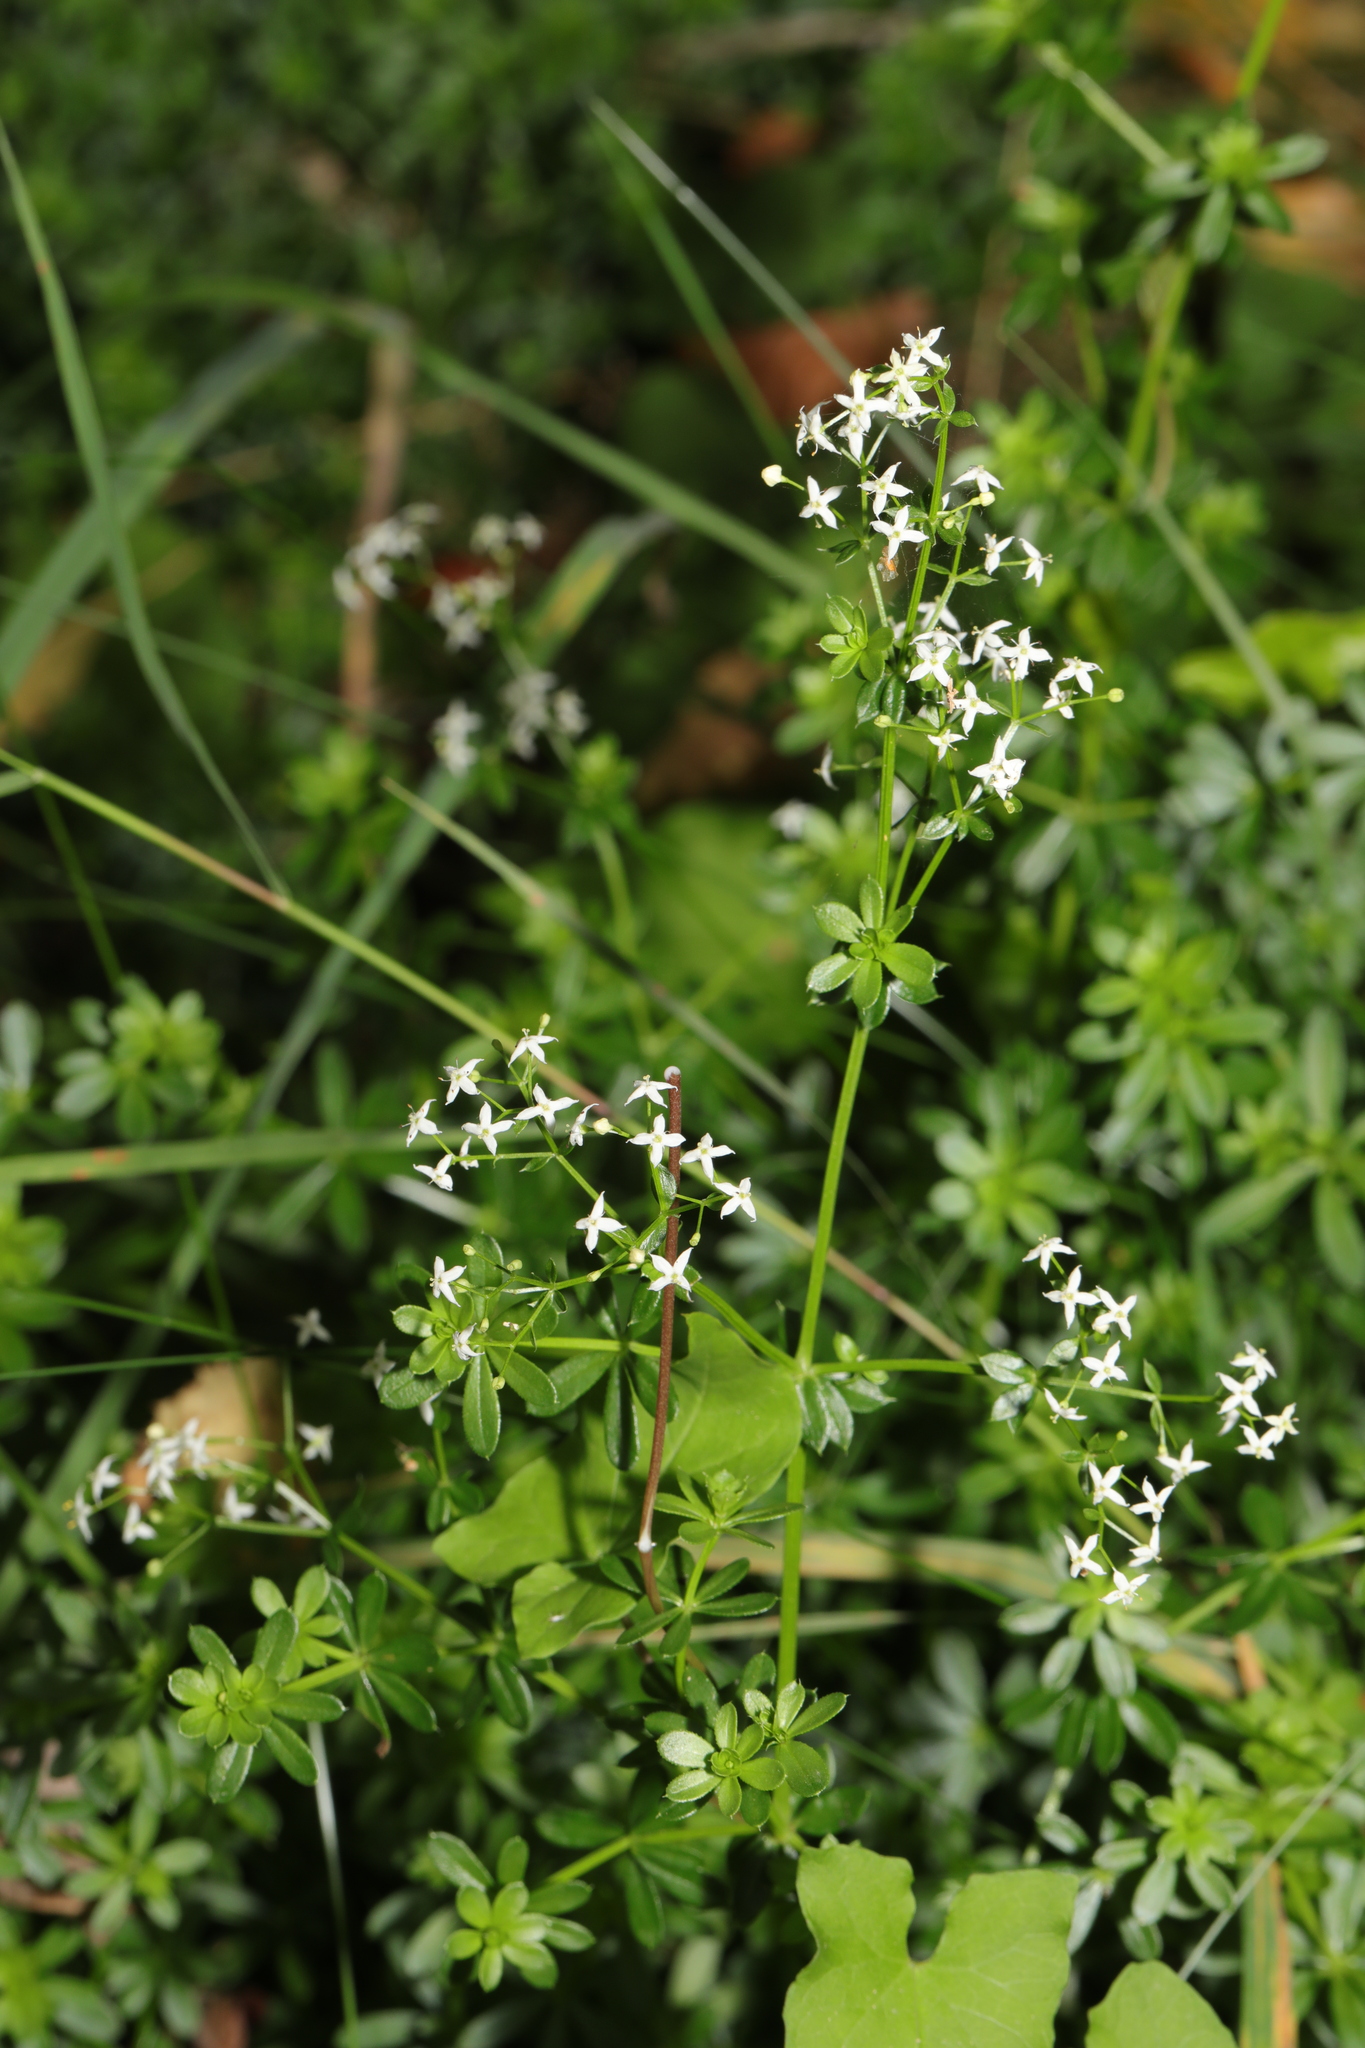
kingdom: Plantae
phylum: Tracheophyta
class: Magnoliopsida
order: Gentianales
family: Rubiaceae
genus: Galium
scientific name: Galium mollugo
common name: Hedge bedstraw
